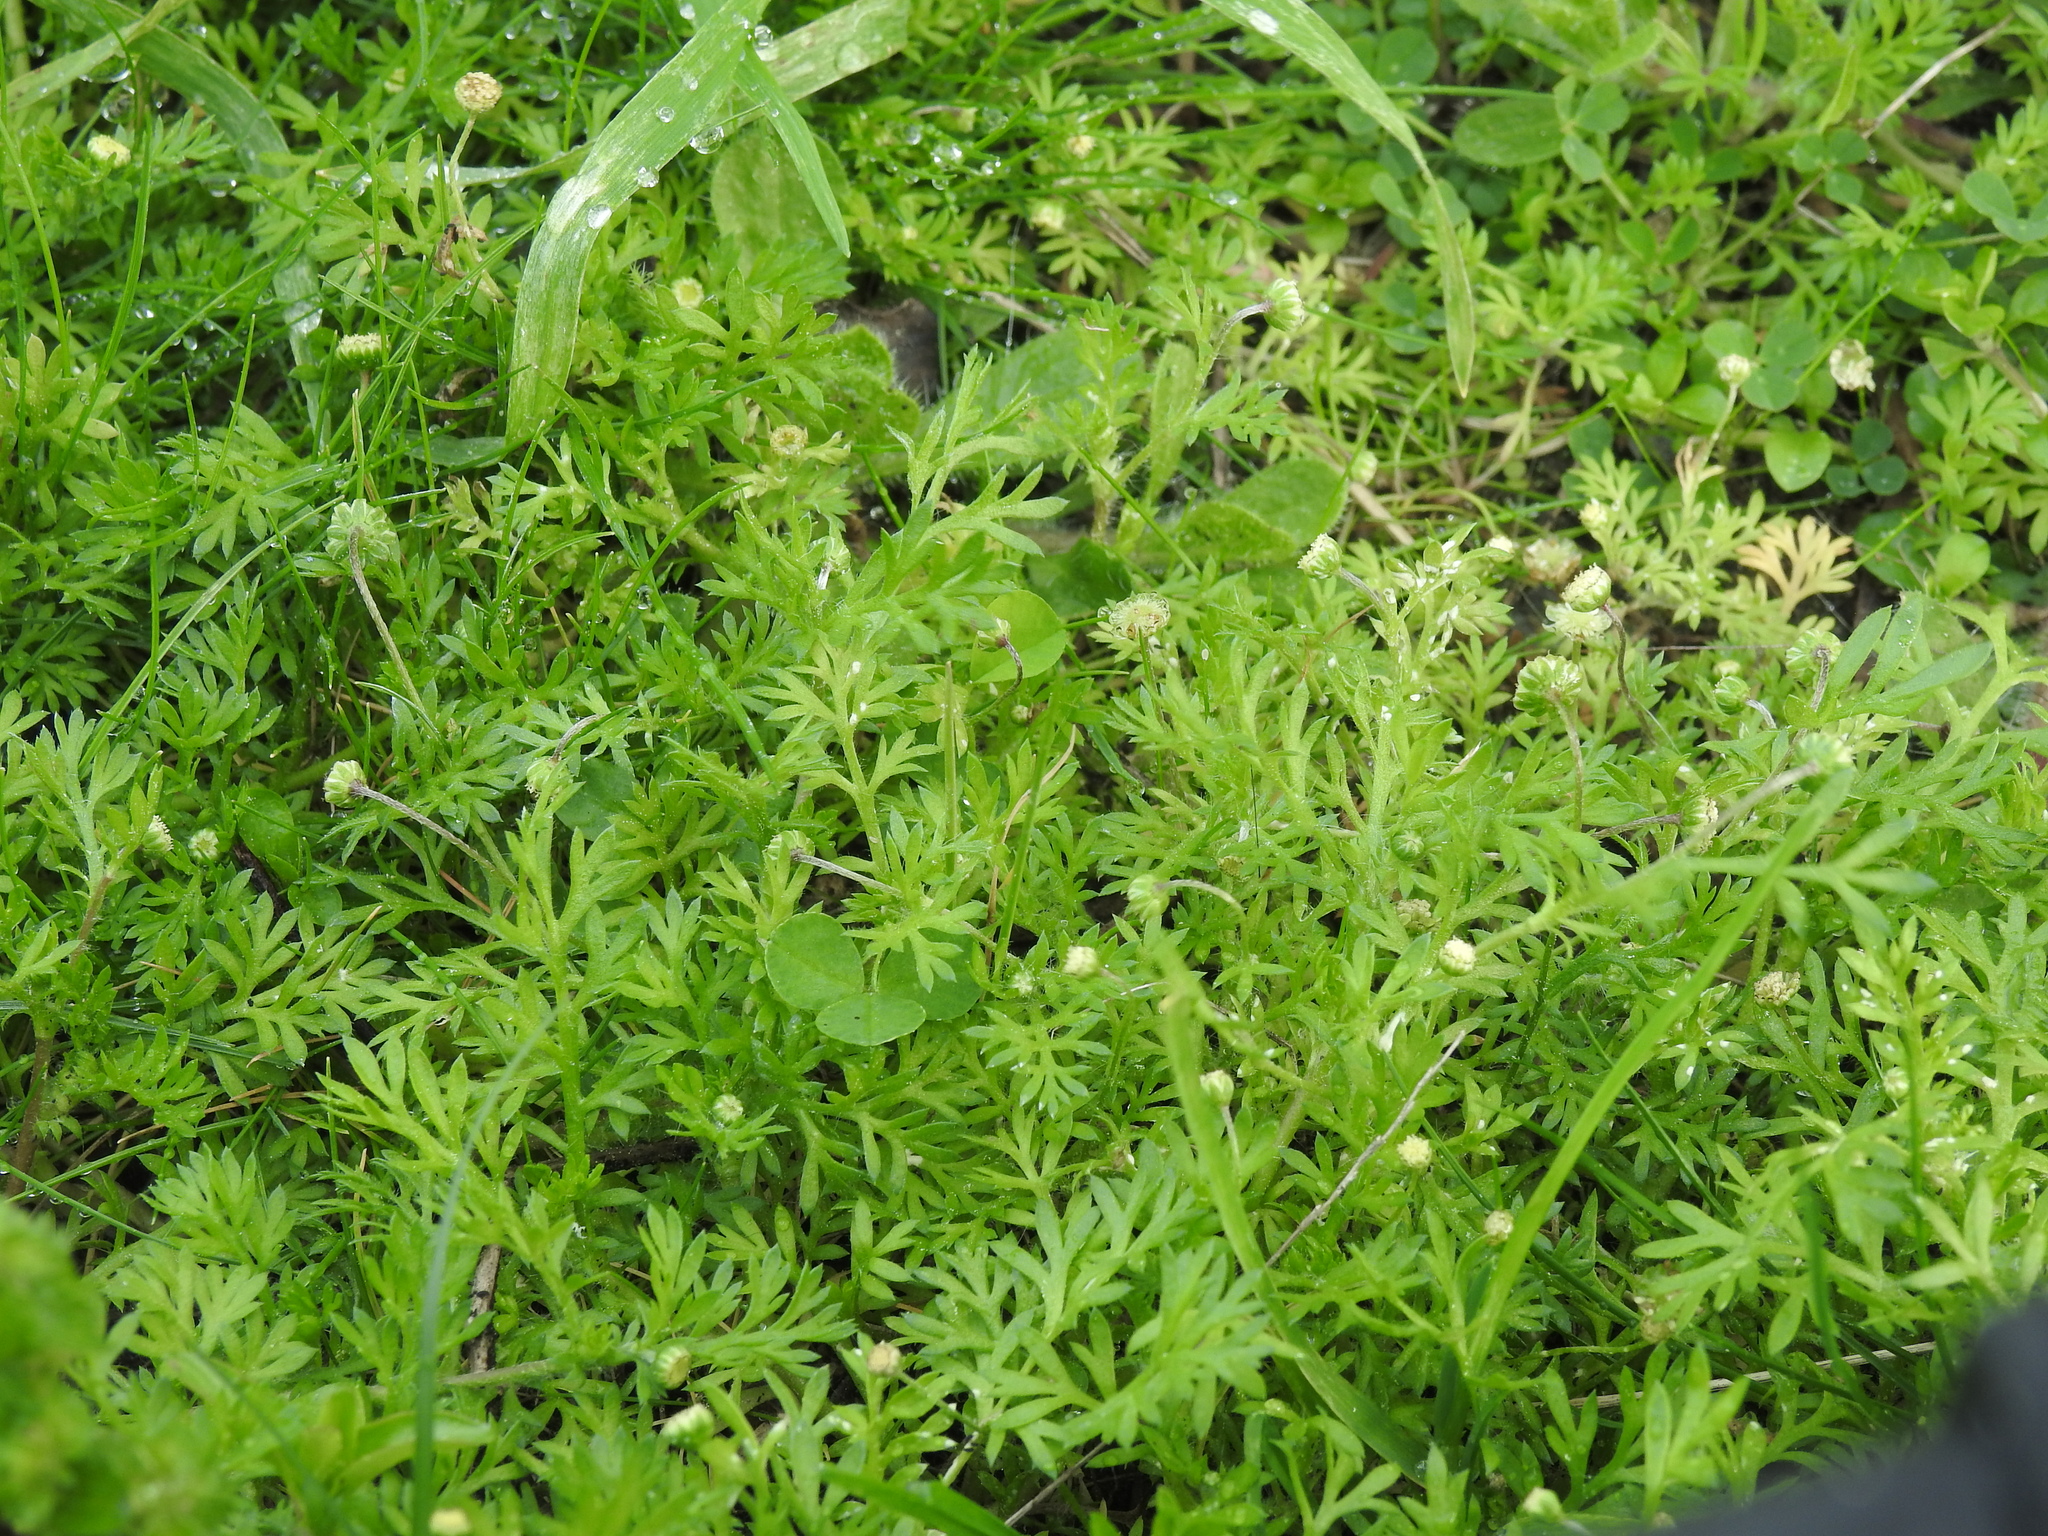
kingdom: Plantae
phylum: Tracheophyta
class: Magnoliopsida
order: Asterales
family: Asteraceae
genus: Cotula
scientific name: Cotula australis
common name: Australian waterbuttons
